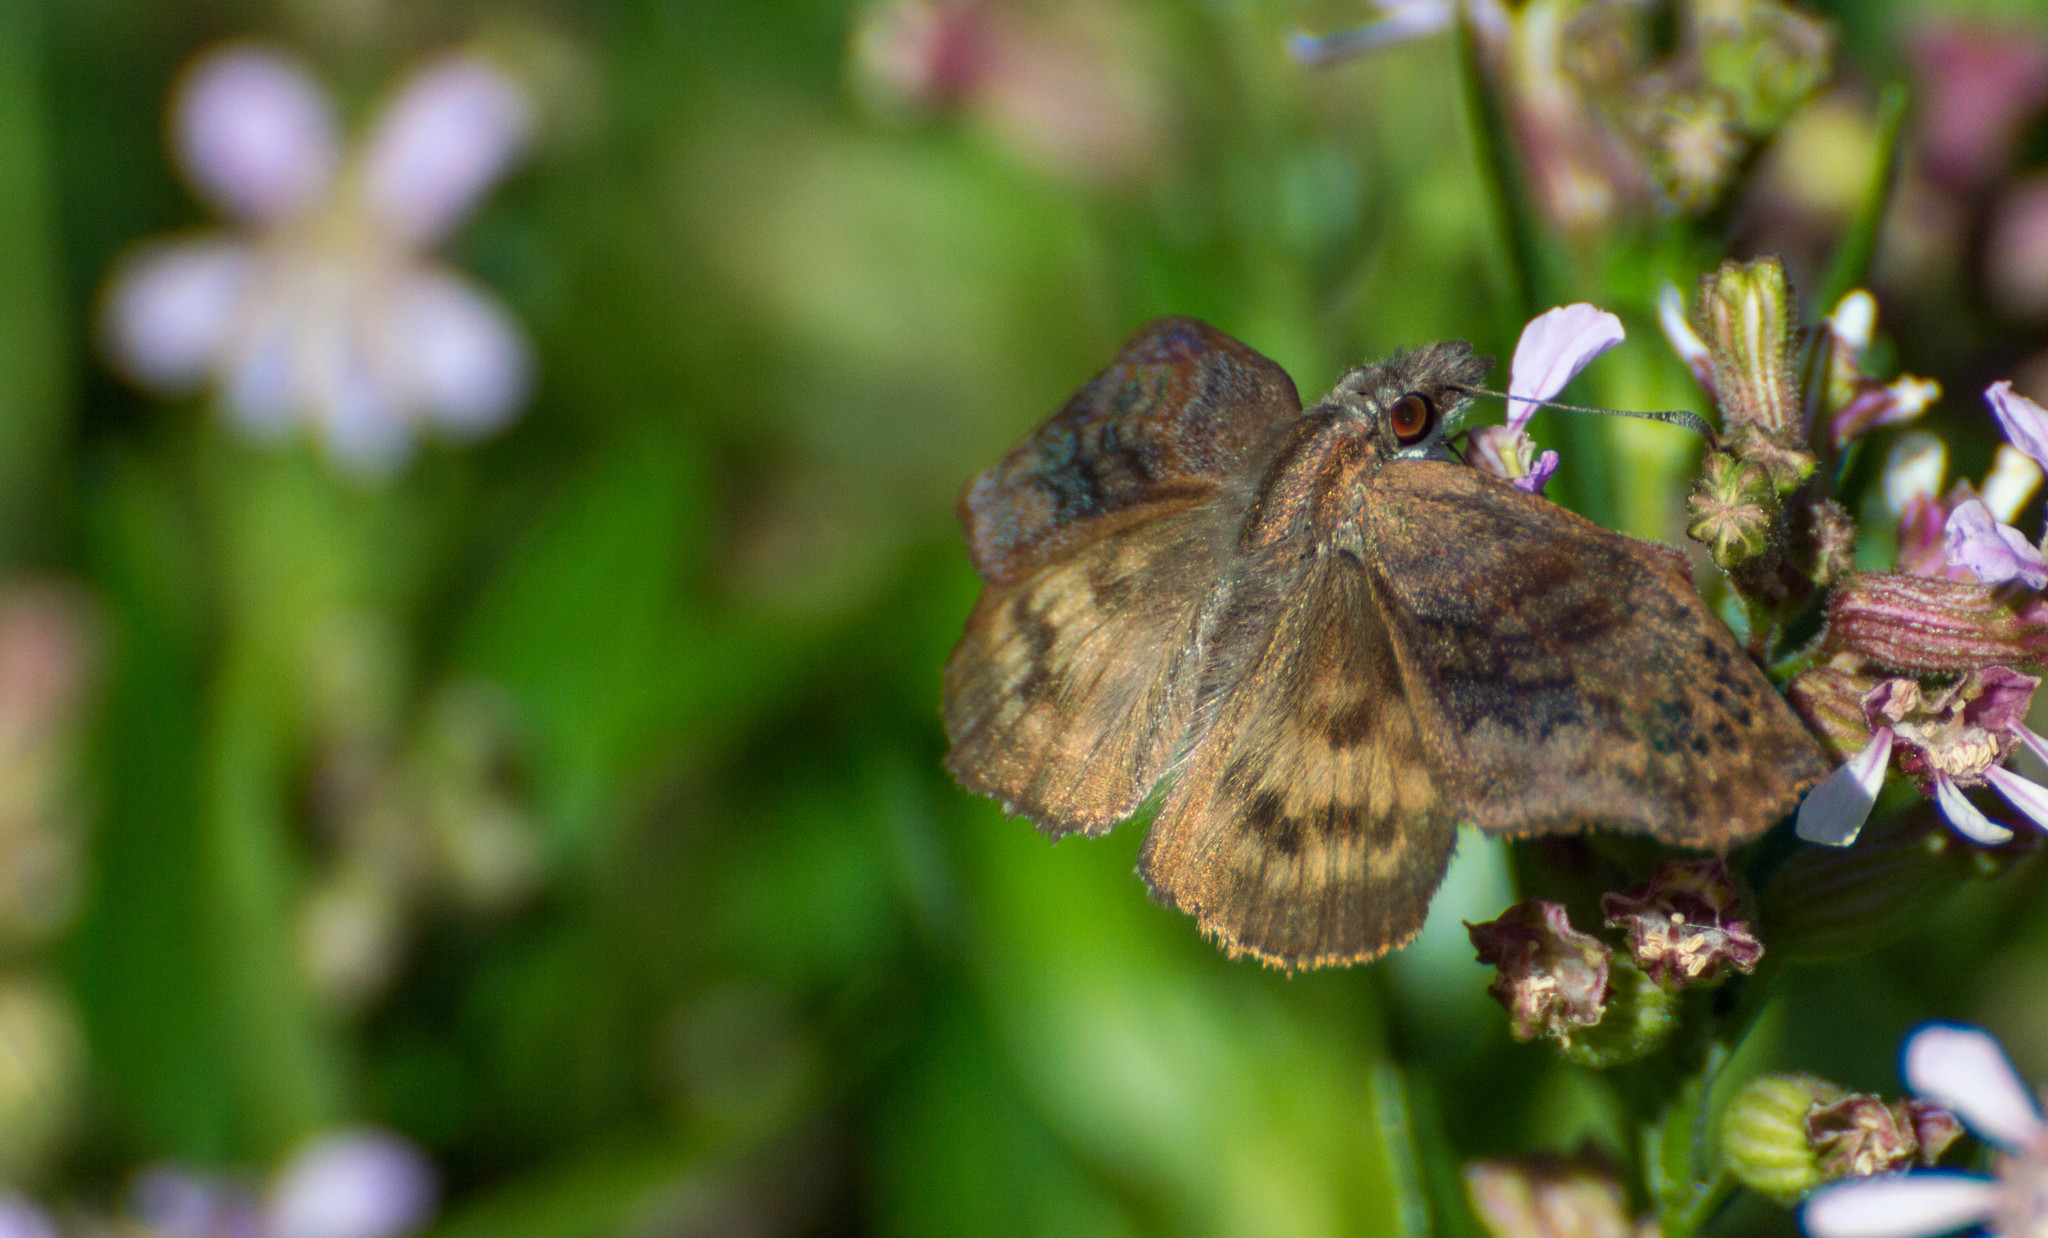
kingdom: Animalia
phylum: Arthropoda
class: Insecta
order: Lepidoptera
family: Hesperiidae
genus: Theagenes
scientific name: Theagenes dichrous
